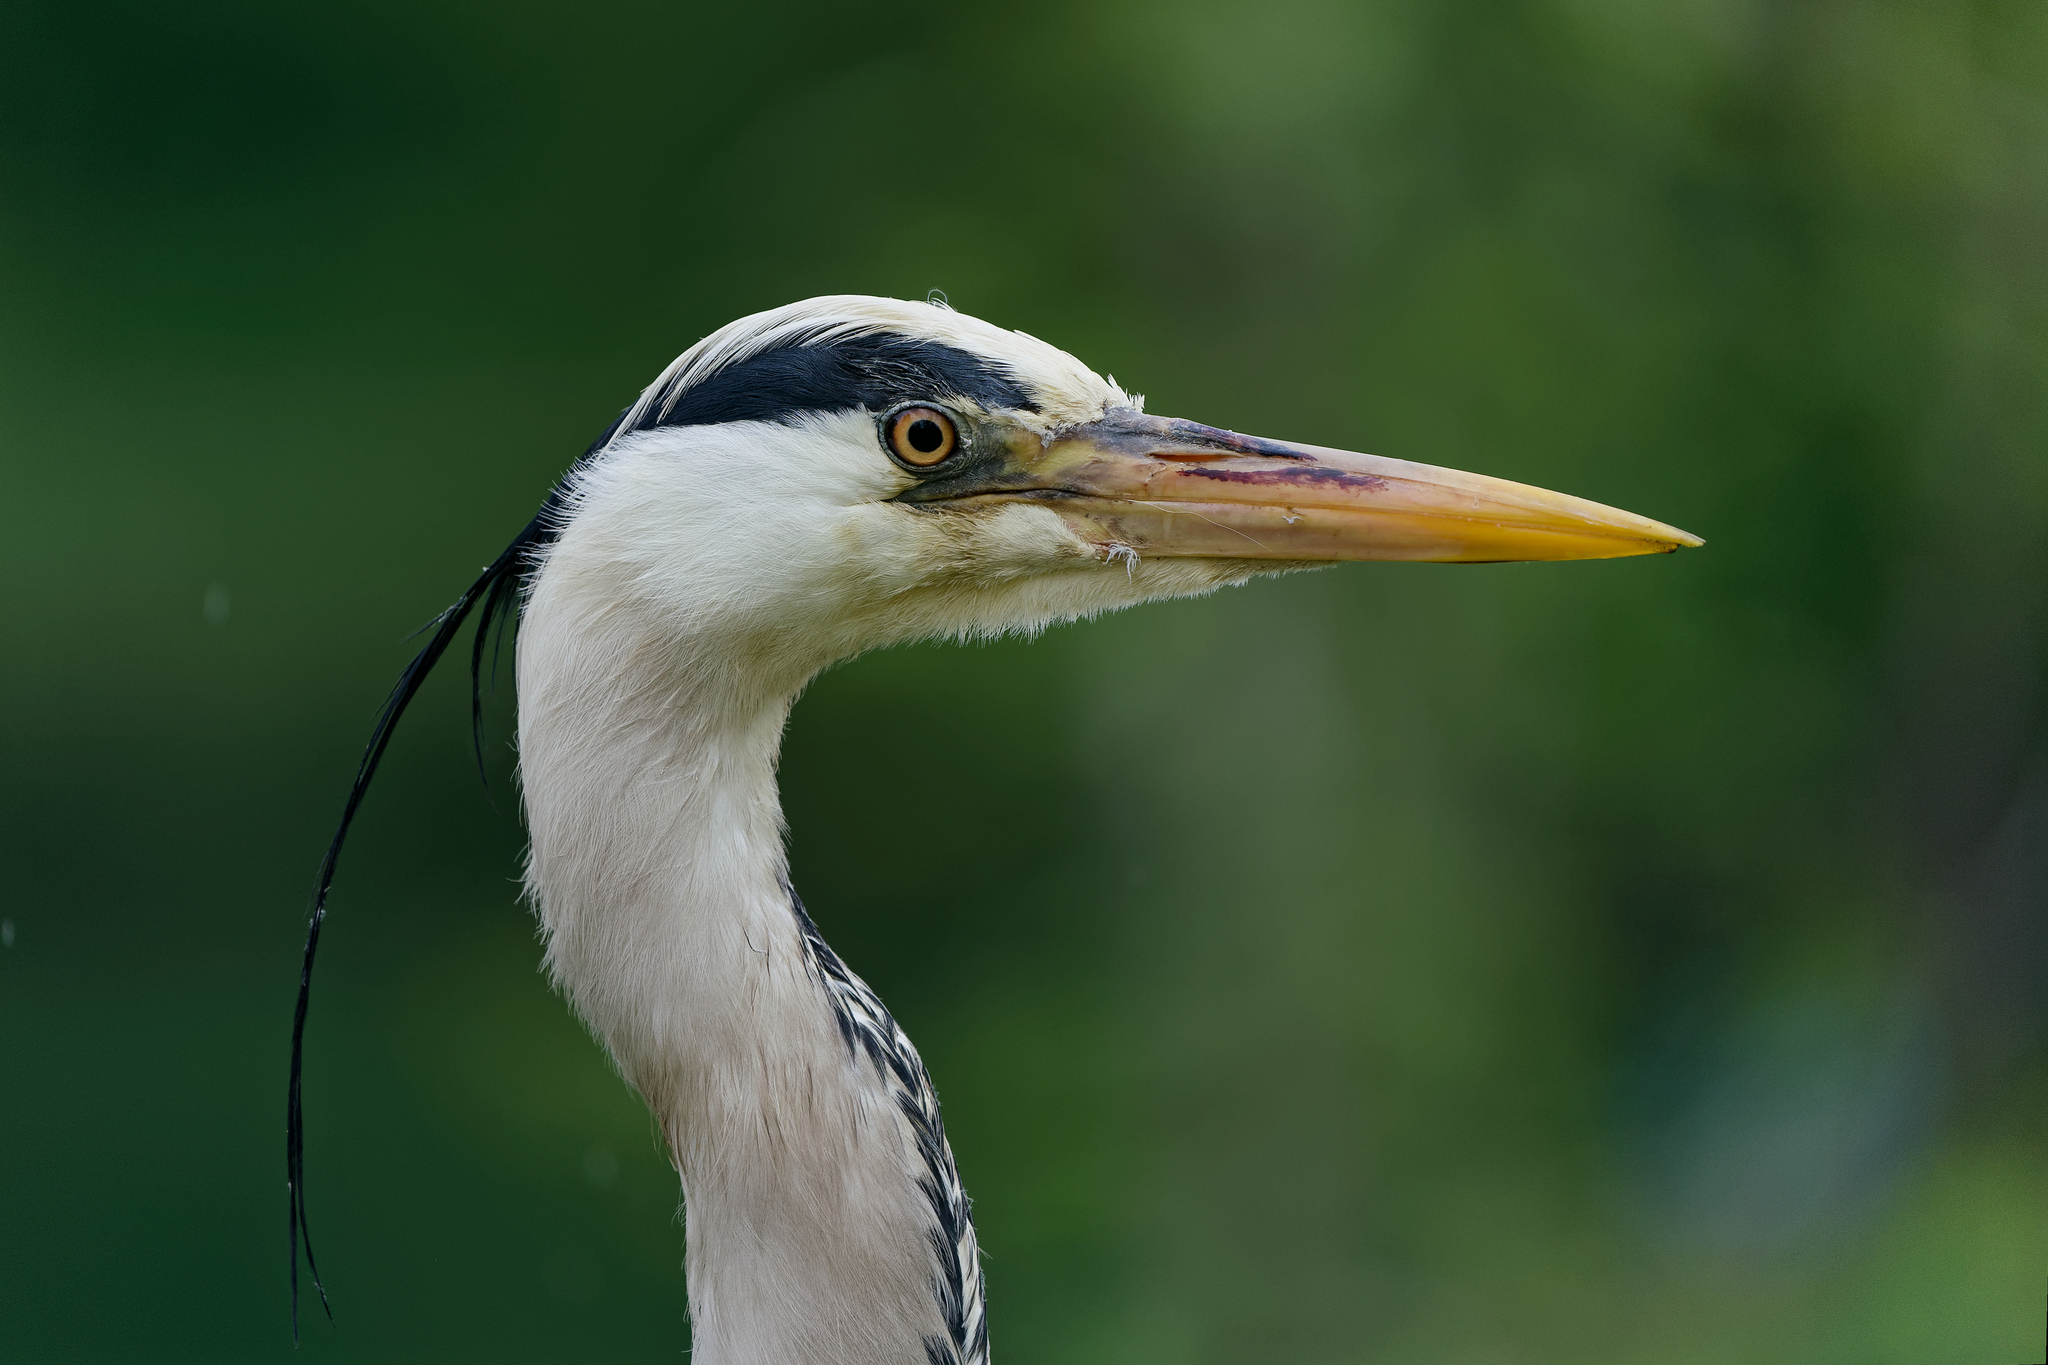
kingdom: Animalia
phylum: Chordata
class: Aves
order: Pelecaniformes
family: Ardeidae
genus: Ardea
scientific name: Ardea cinerea
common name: Grey heron
